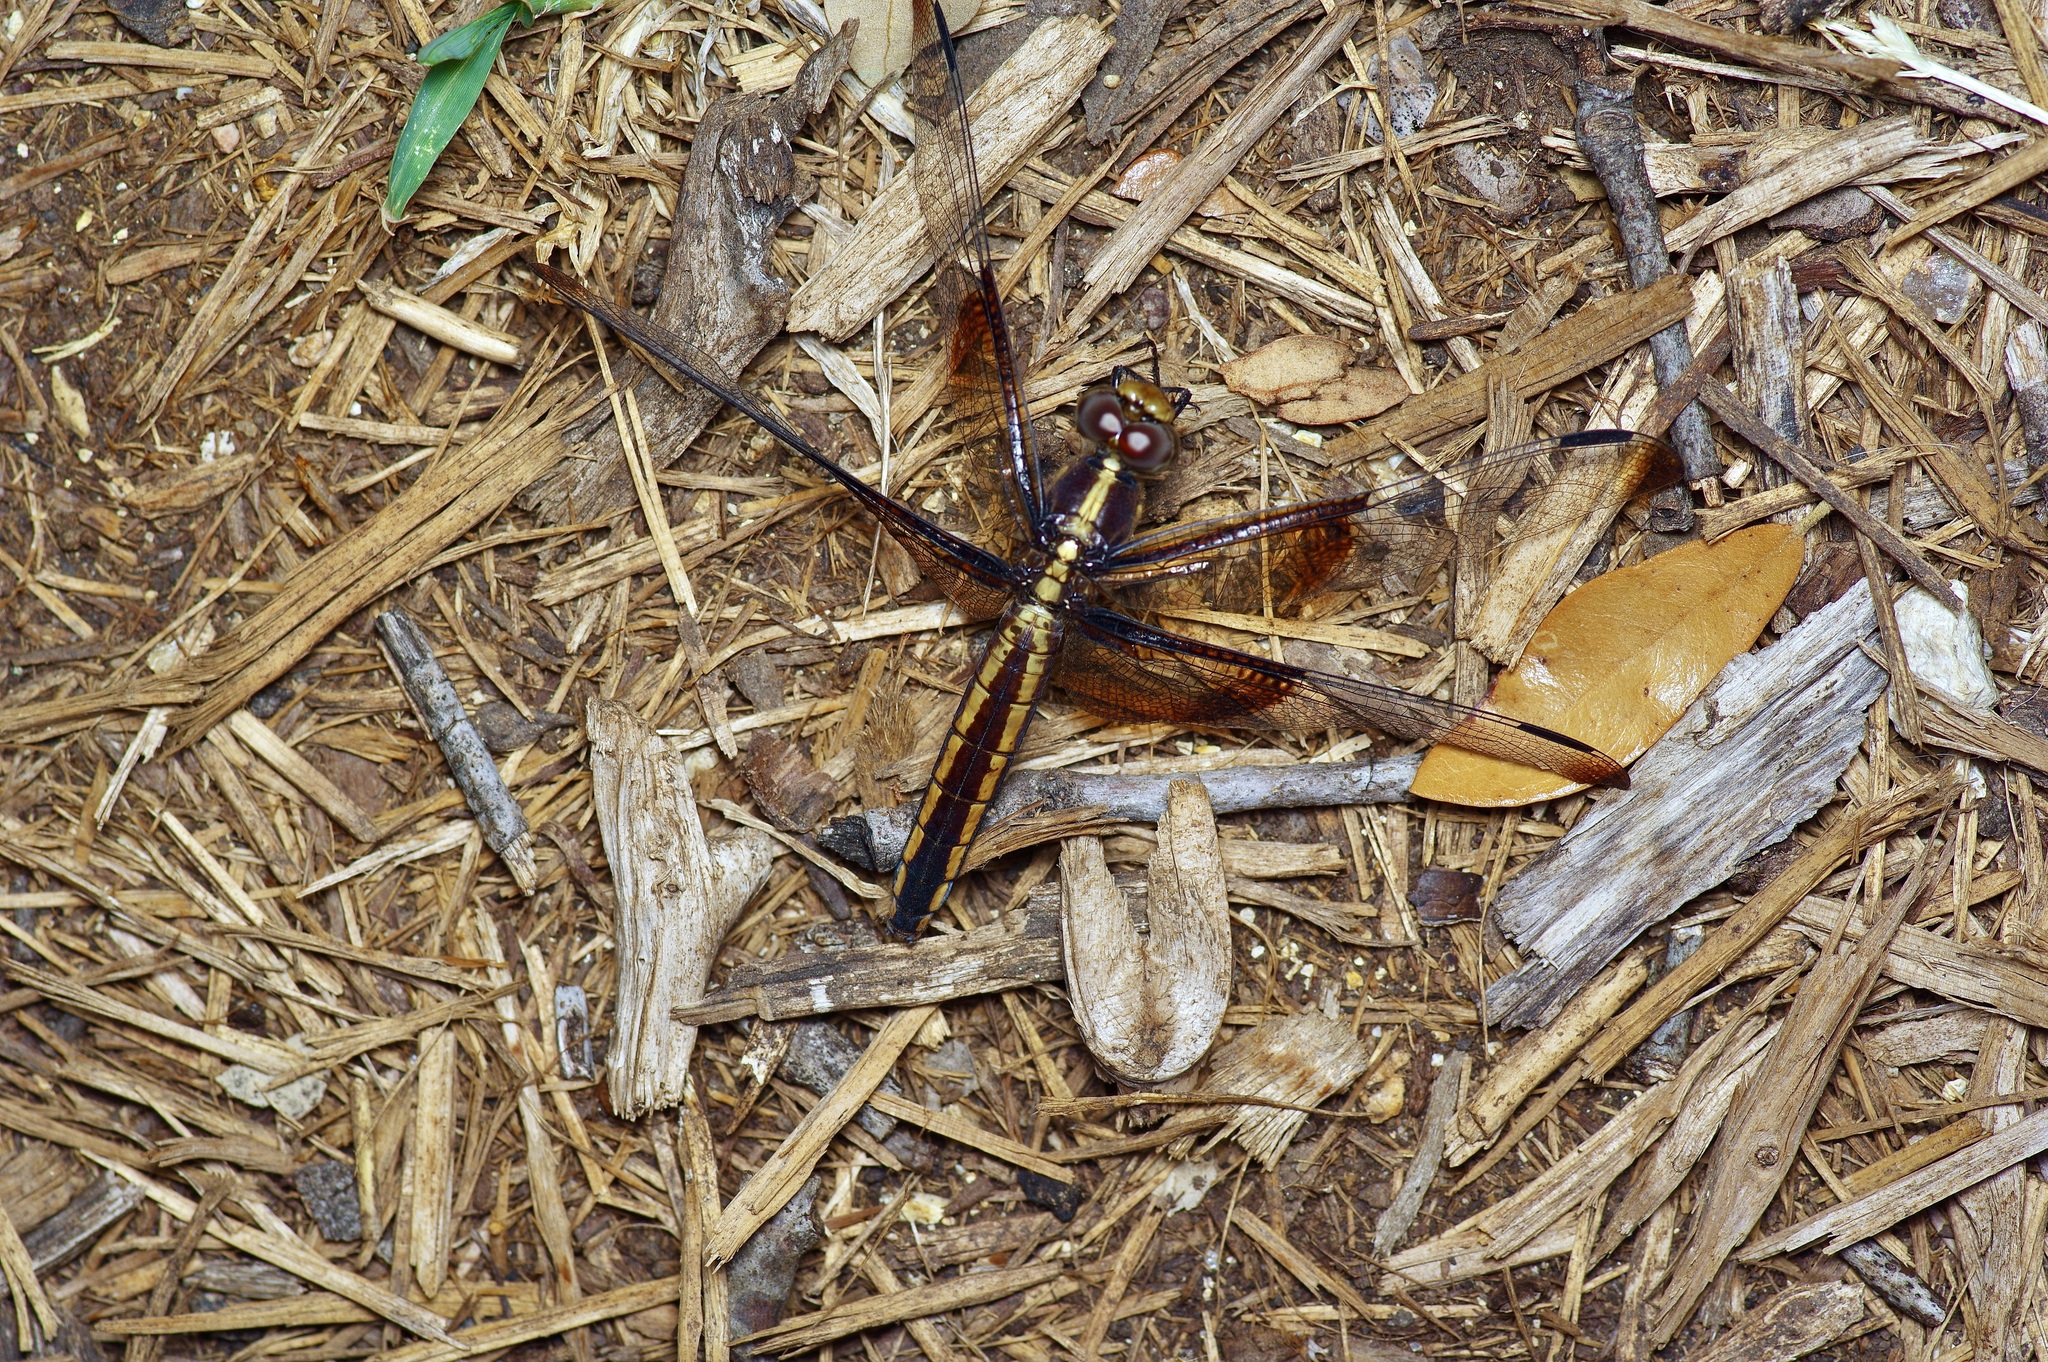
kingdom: Animalia
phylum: Arthropoda
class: Insecta
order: Odonata
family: Libellulidae
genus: Libellula
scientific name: Libellula luctuosa
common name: Widow skimmer
